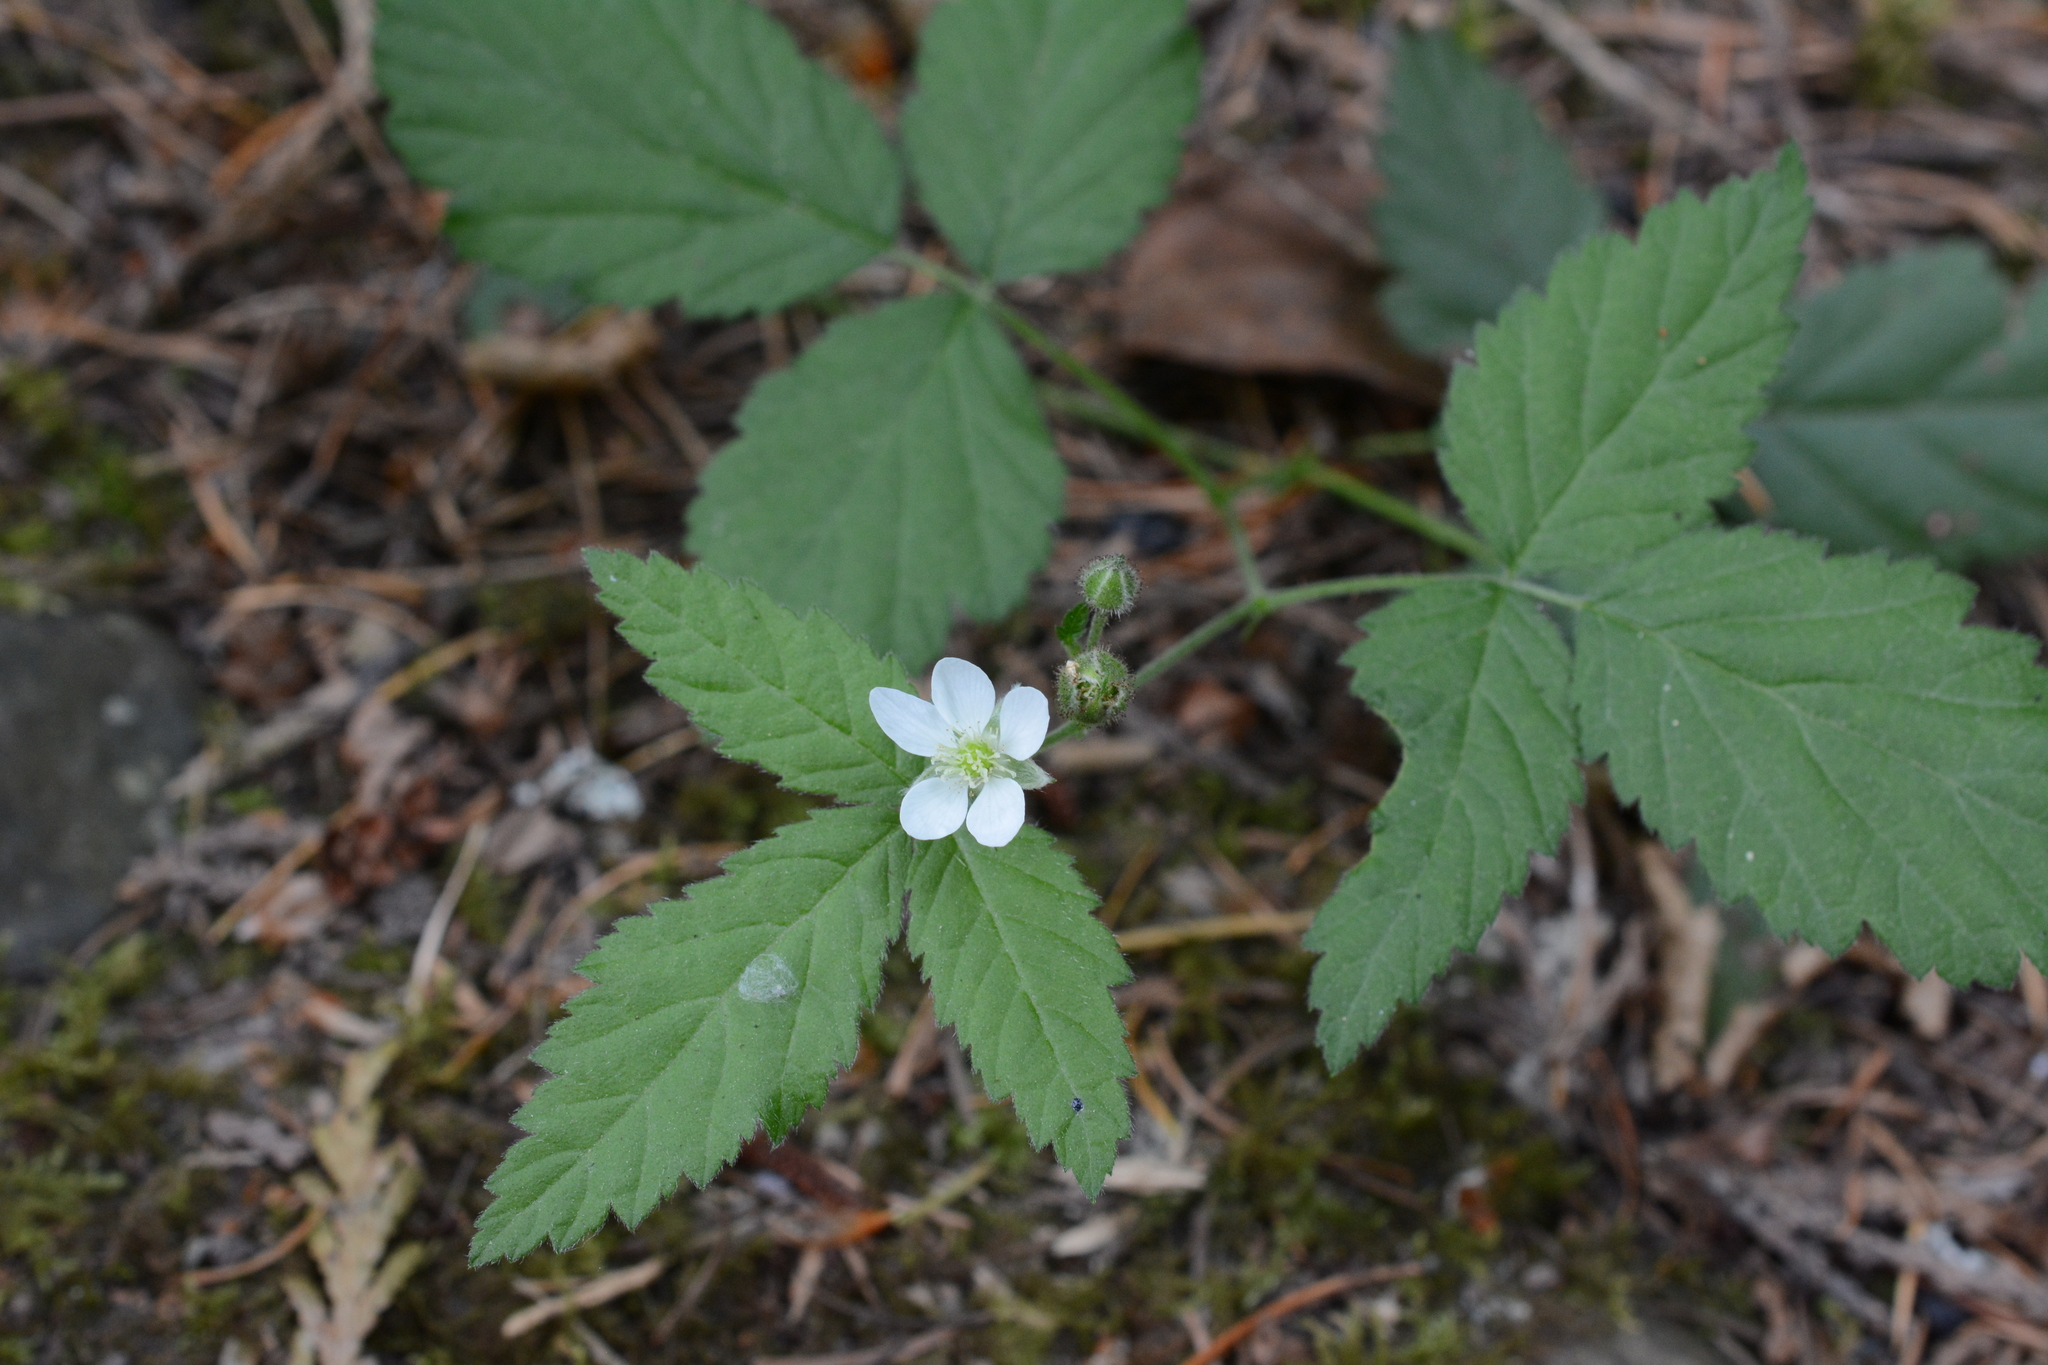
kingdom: Plantae
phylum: Tracheophyta
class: Magnoliopsida
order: Rosales
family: Rosaceae
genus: Rubus
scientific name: Rubus ursinus
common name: Pacific blackberry
